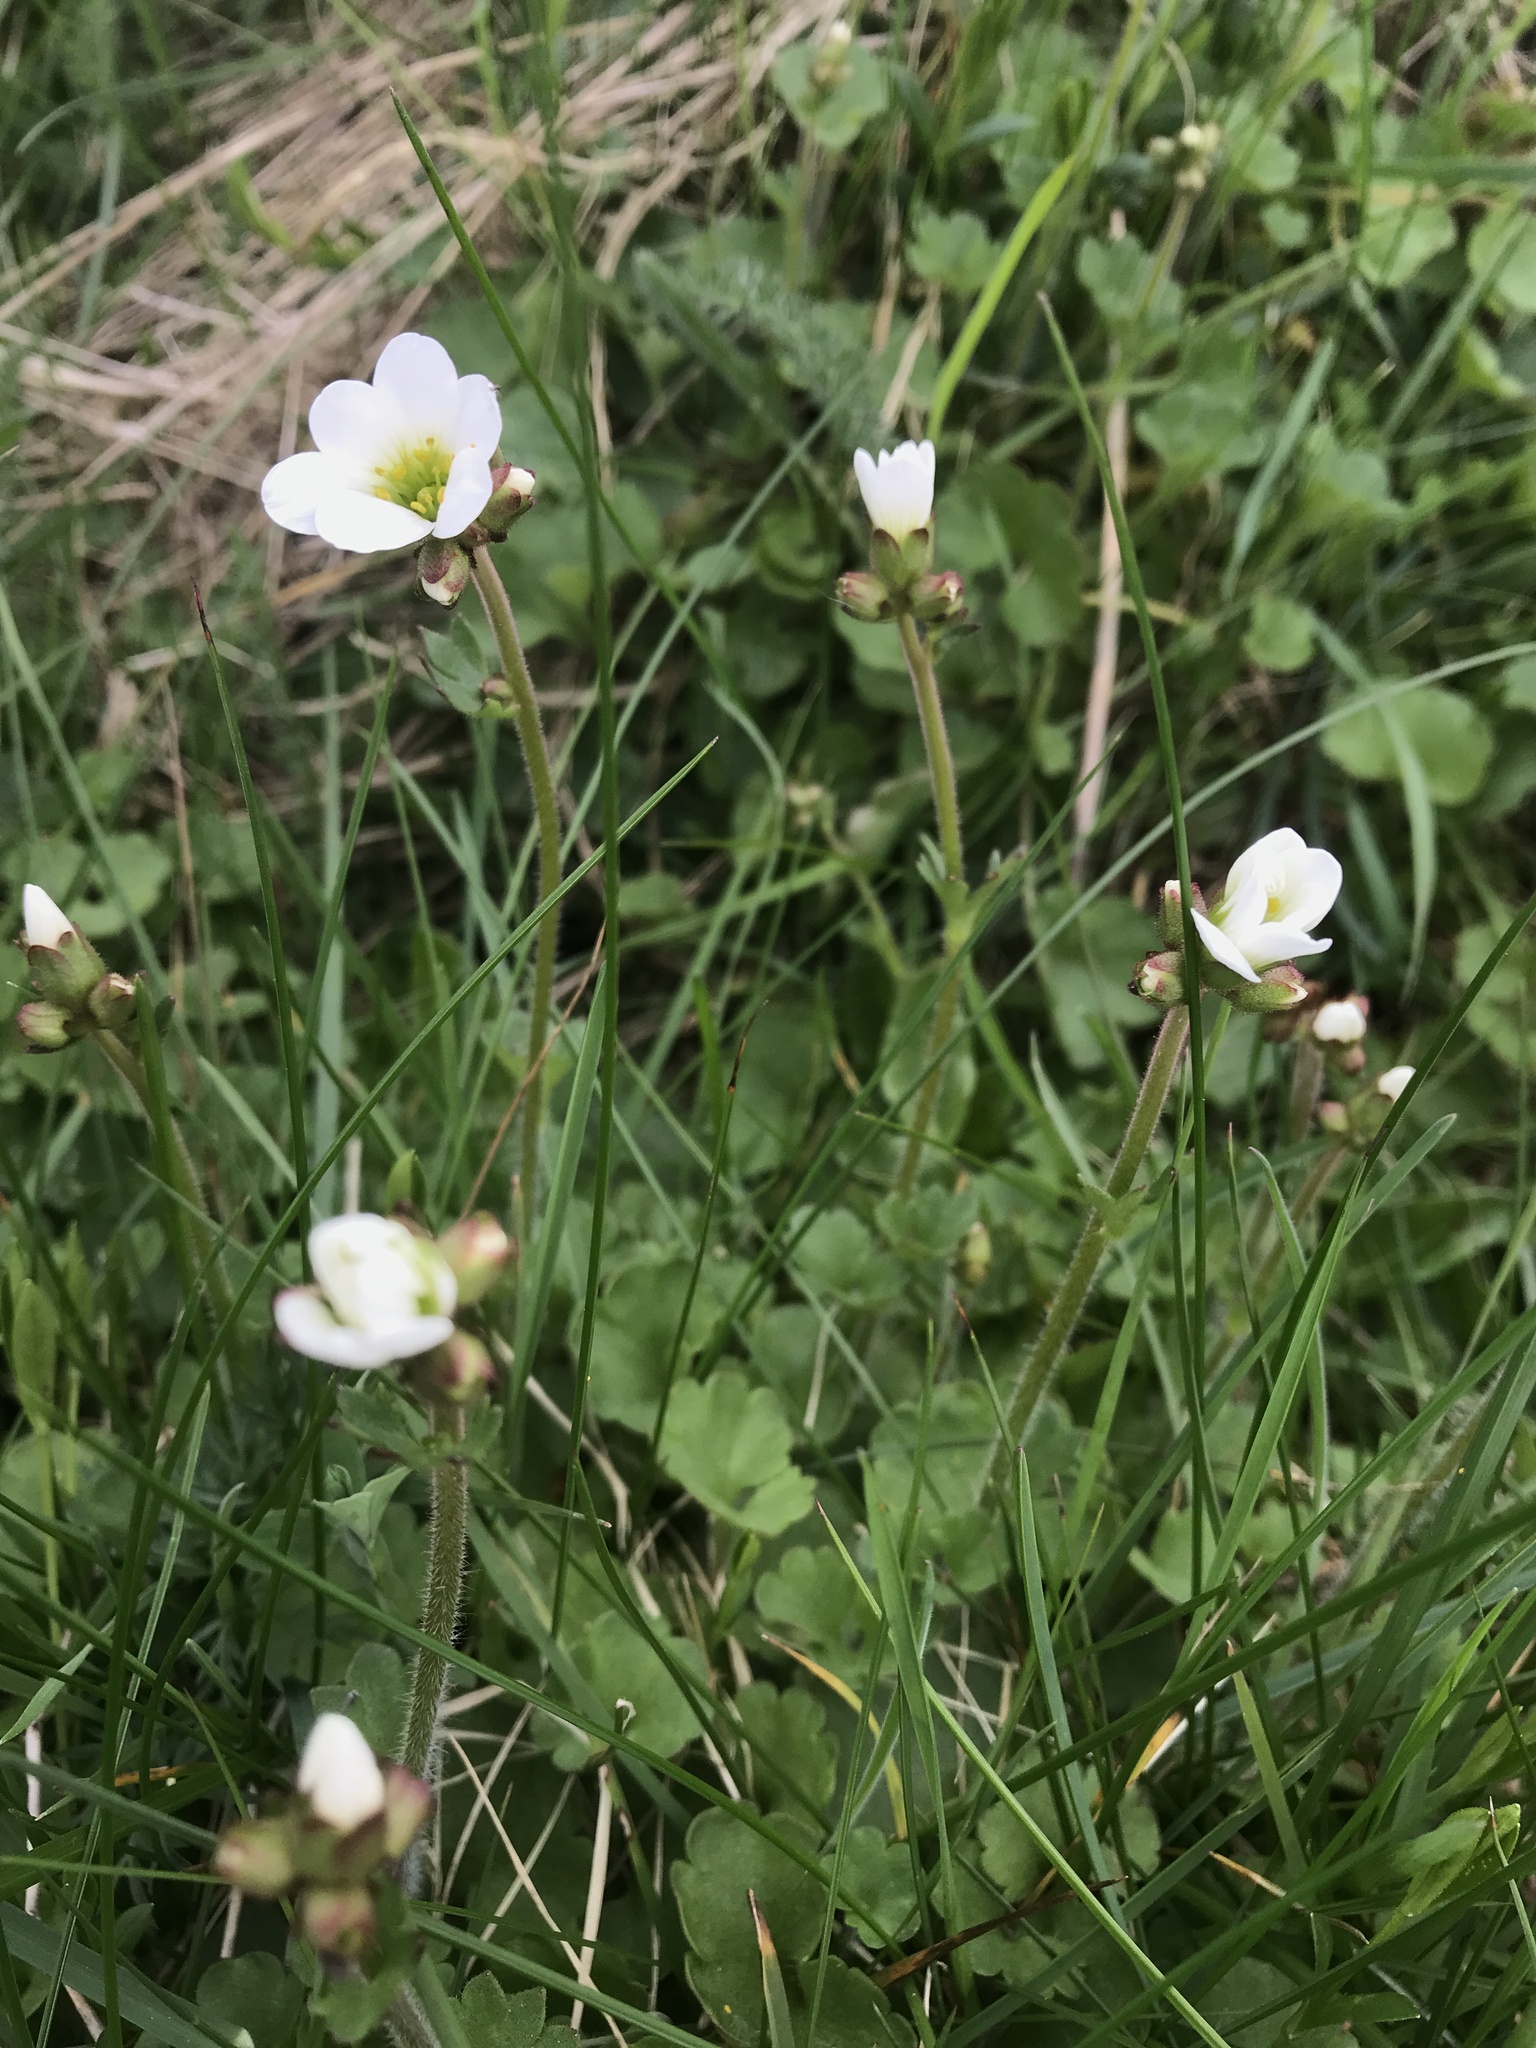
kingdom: Plantae
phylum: Tracheophyta
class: Magnoliopsida
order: Saxifragales
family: Saxifragaceae
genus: Saxifraga
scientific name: Saxifraga granulata
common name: Meadow saxifrage
